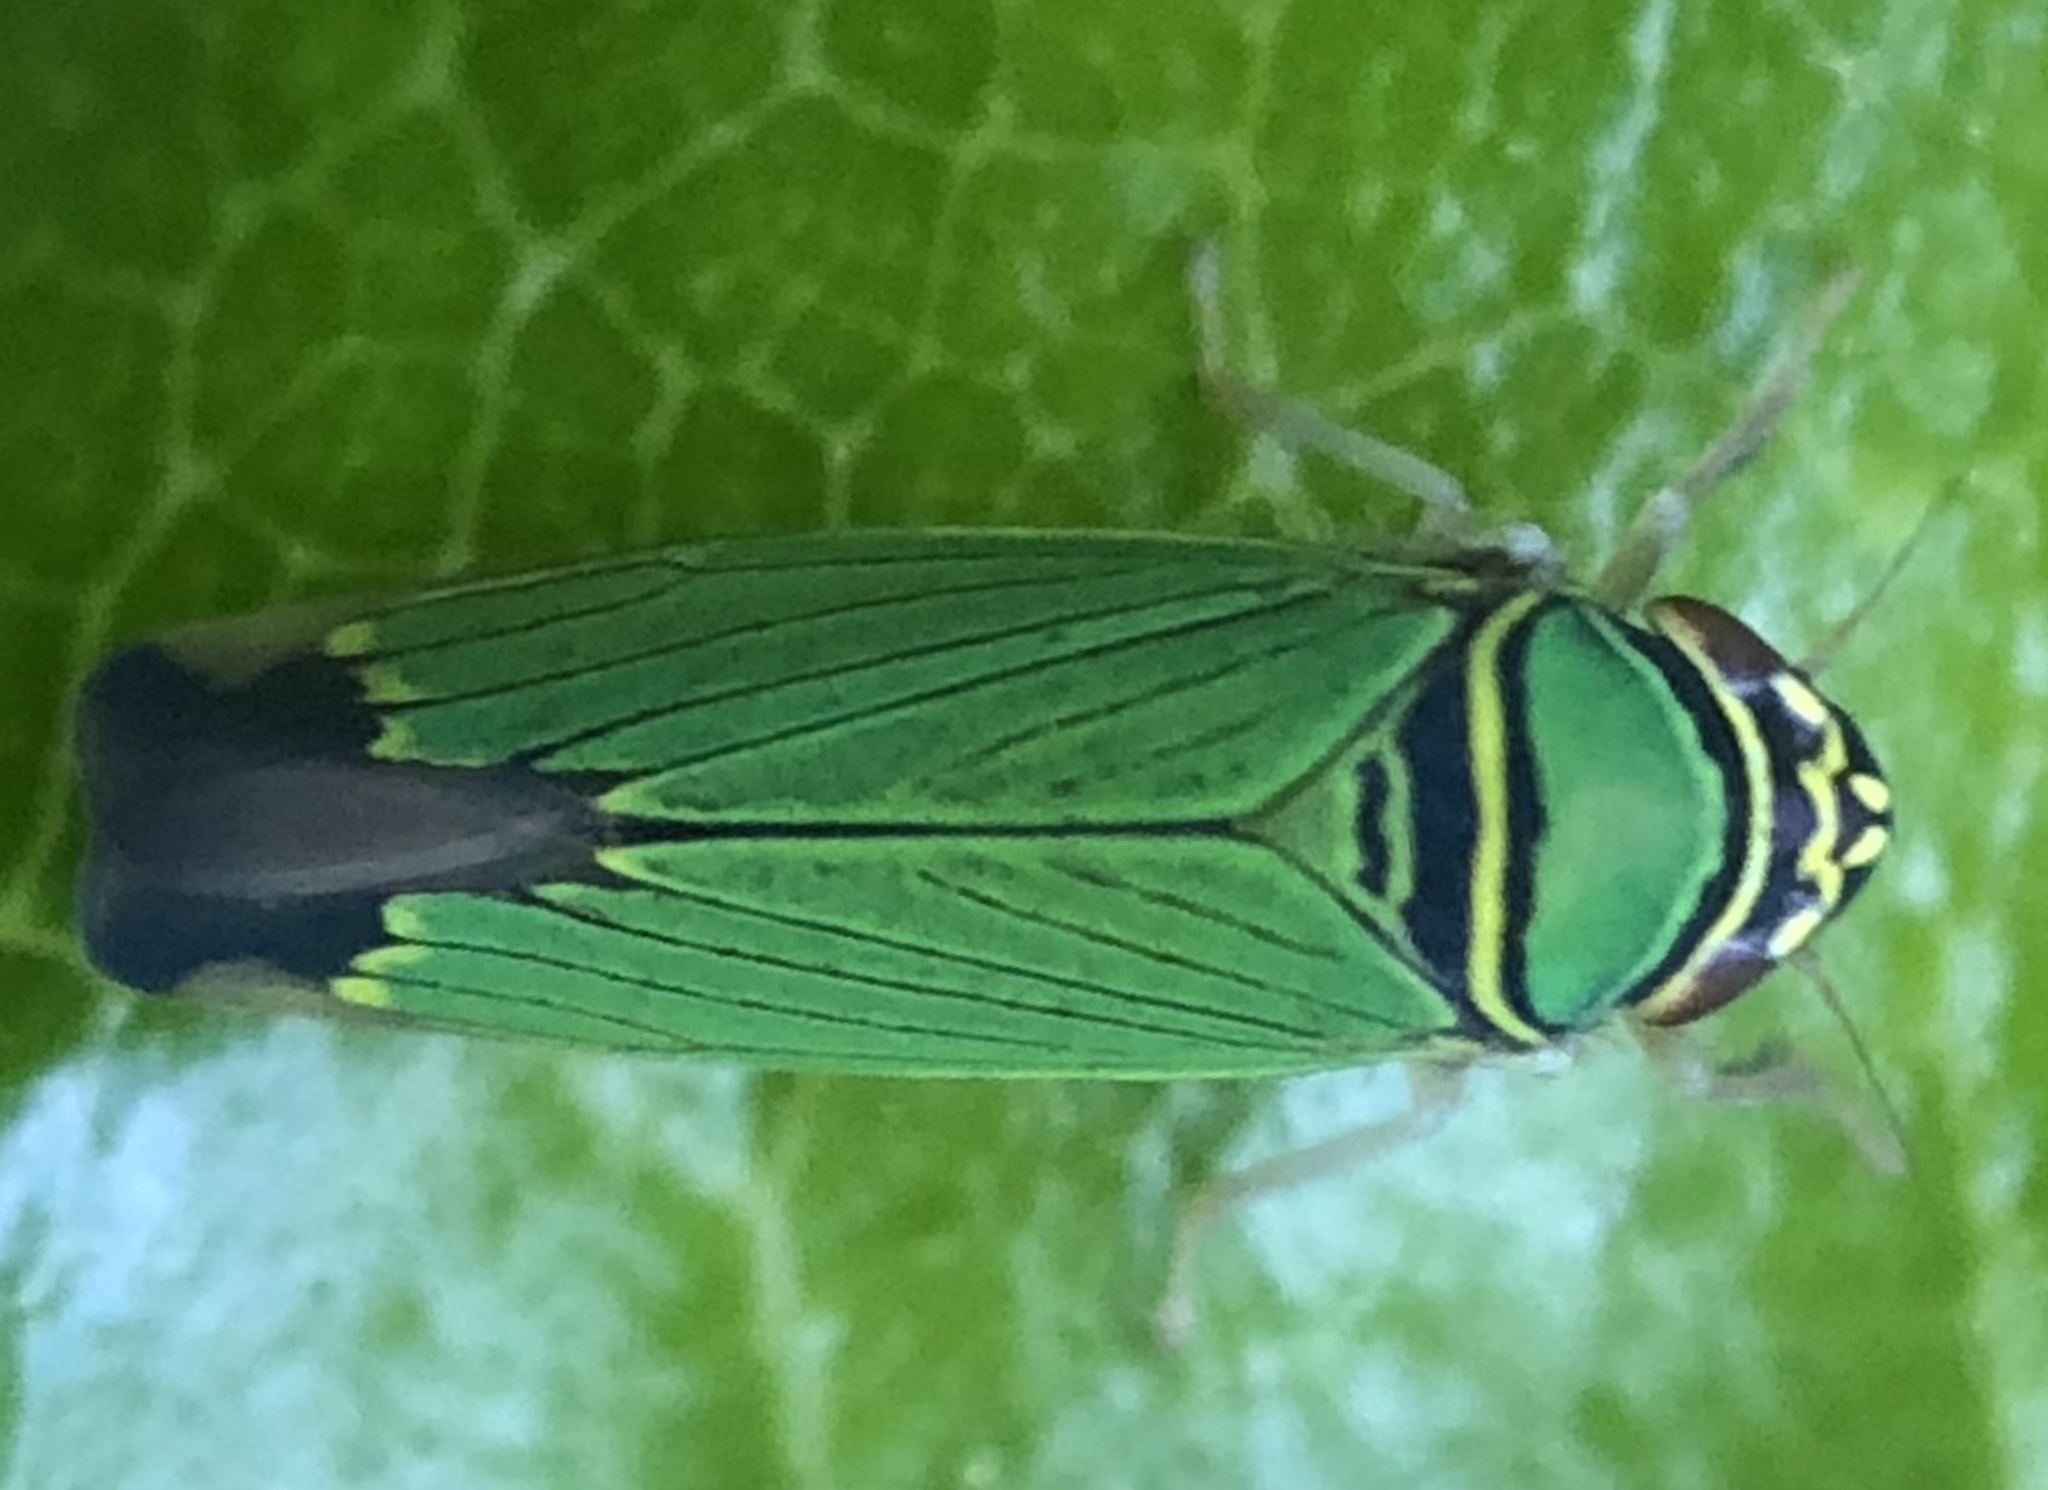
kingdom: Animalia
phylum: Arthropoda
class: Insecta
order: Hemiptera
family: Cicadellidae
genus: Tylozygus
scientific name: Tylozygus geometricus
